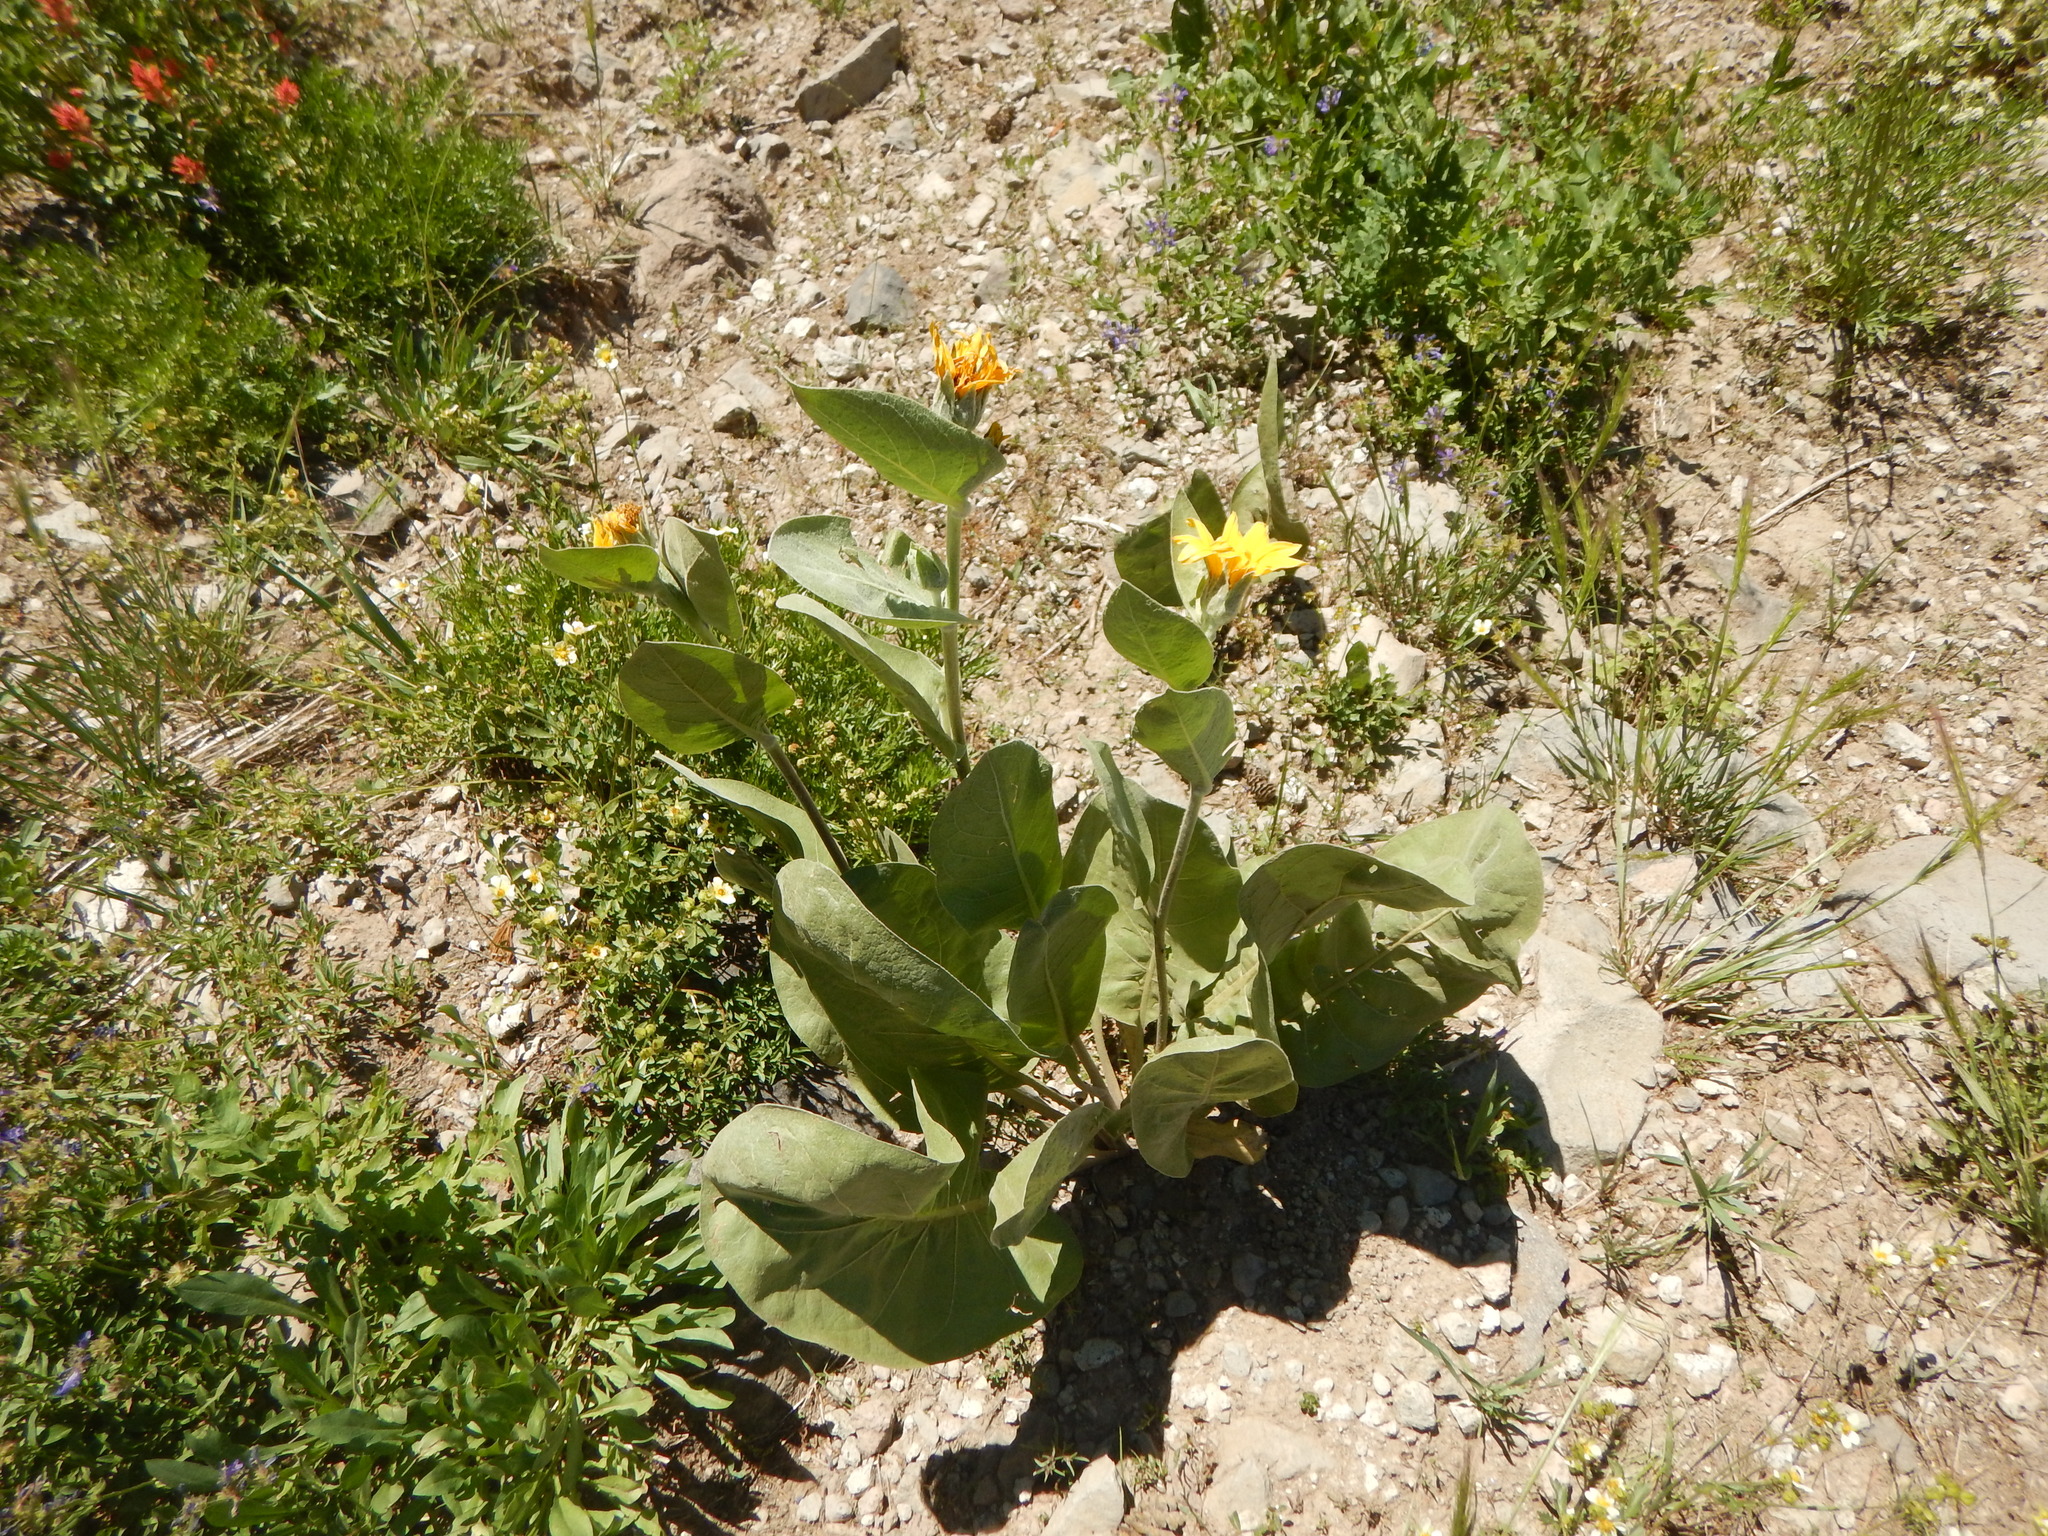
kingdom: Plantae
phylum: Tracheophyta
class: Magnoliopsida
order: Asterales
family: Asteraceae
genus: Wyethia
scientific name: Wyethia mollis
